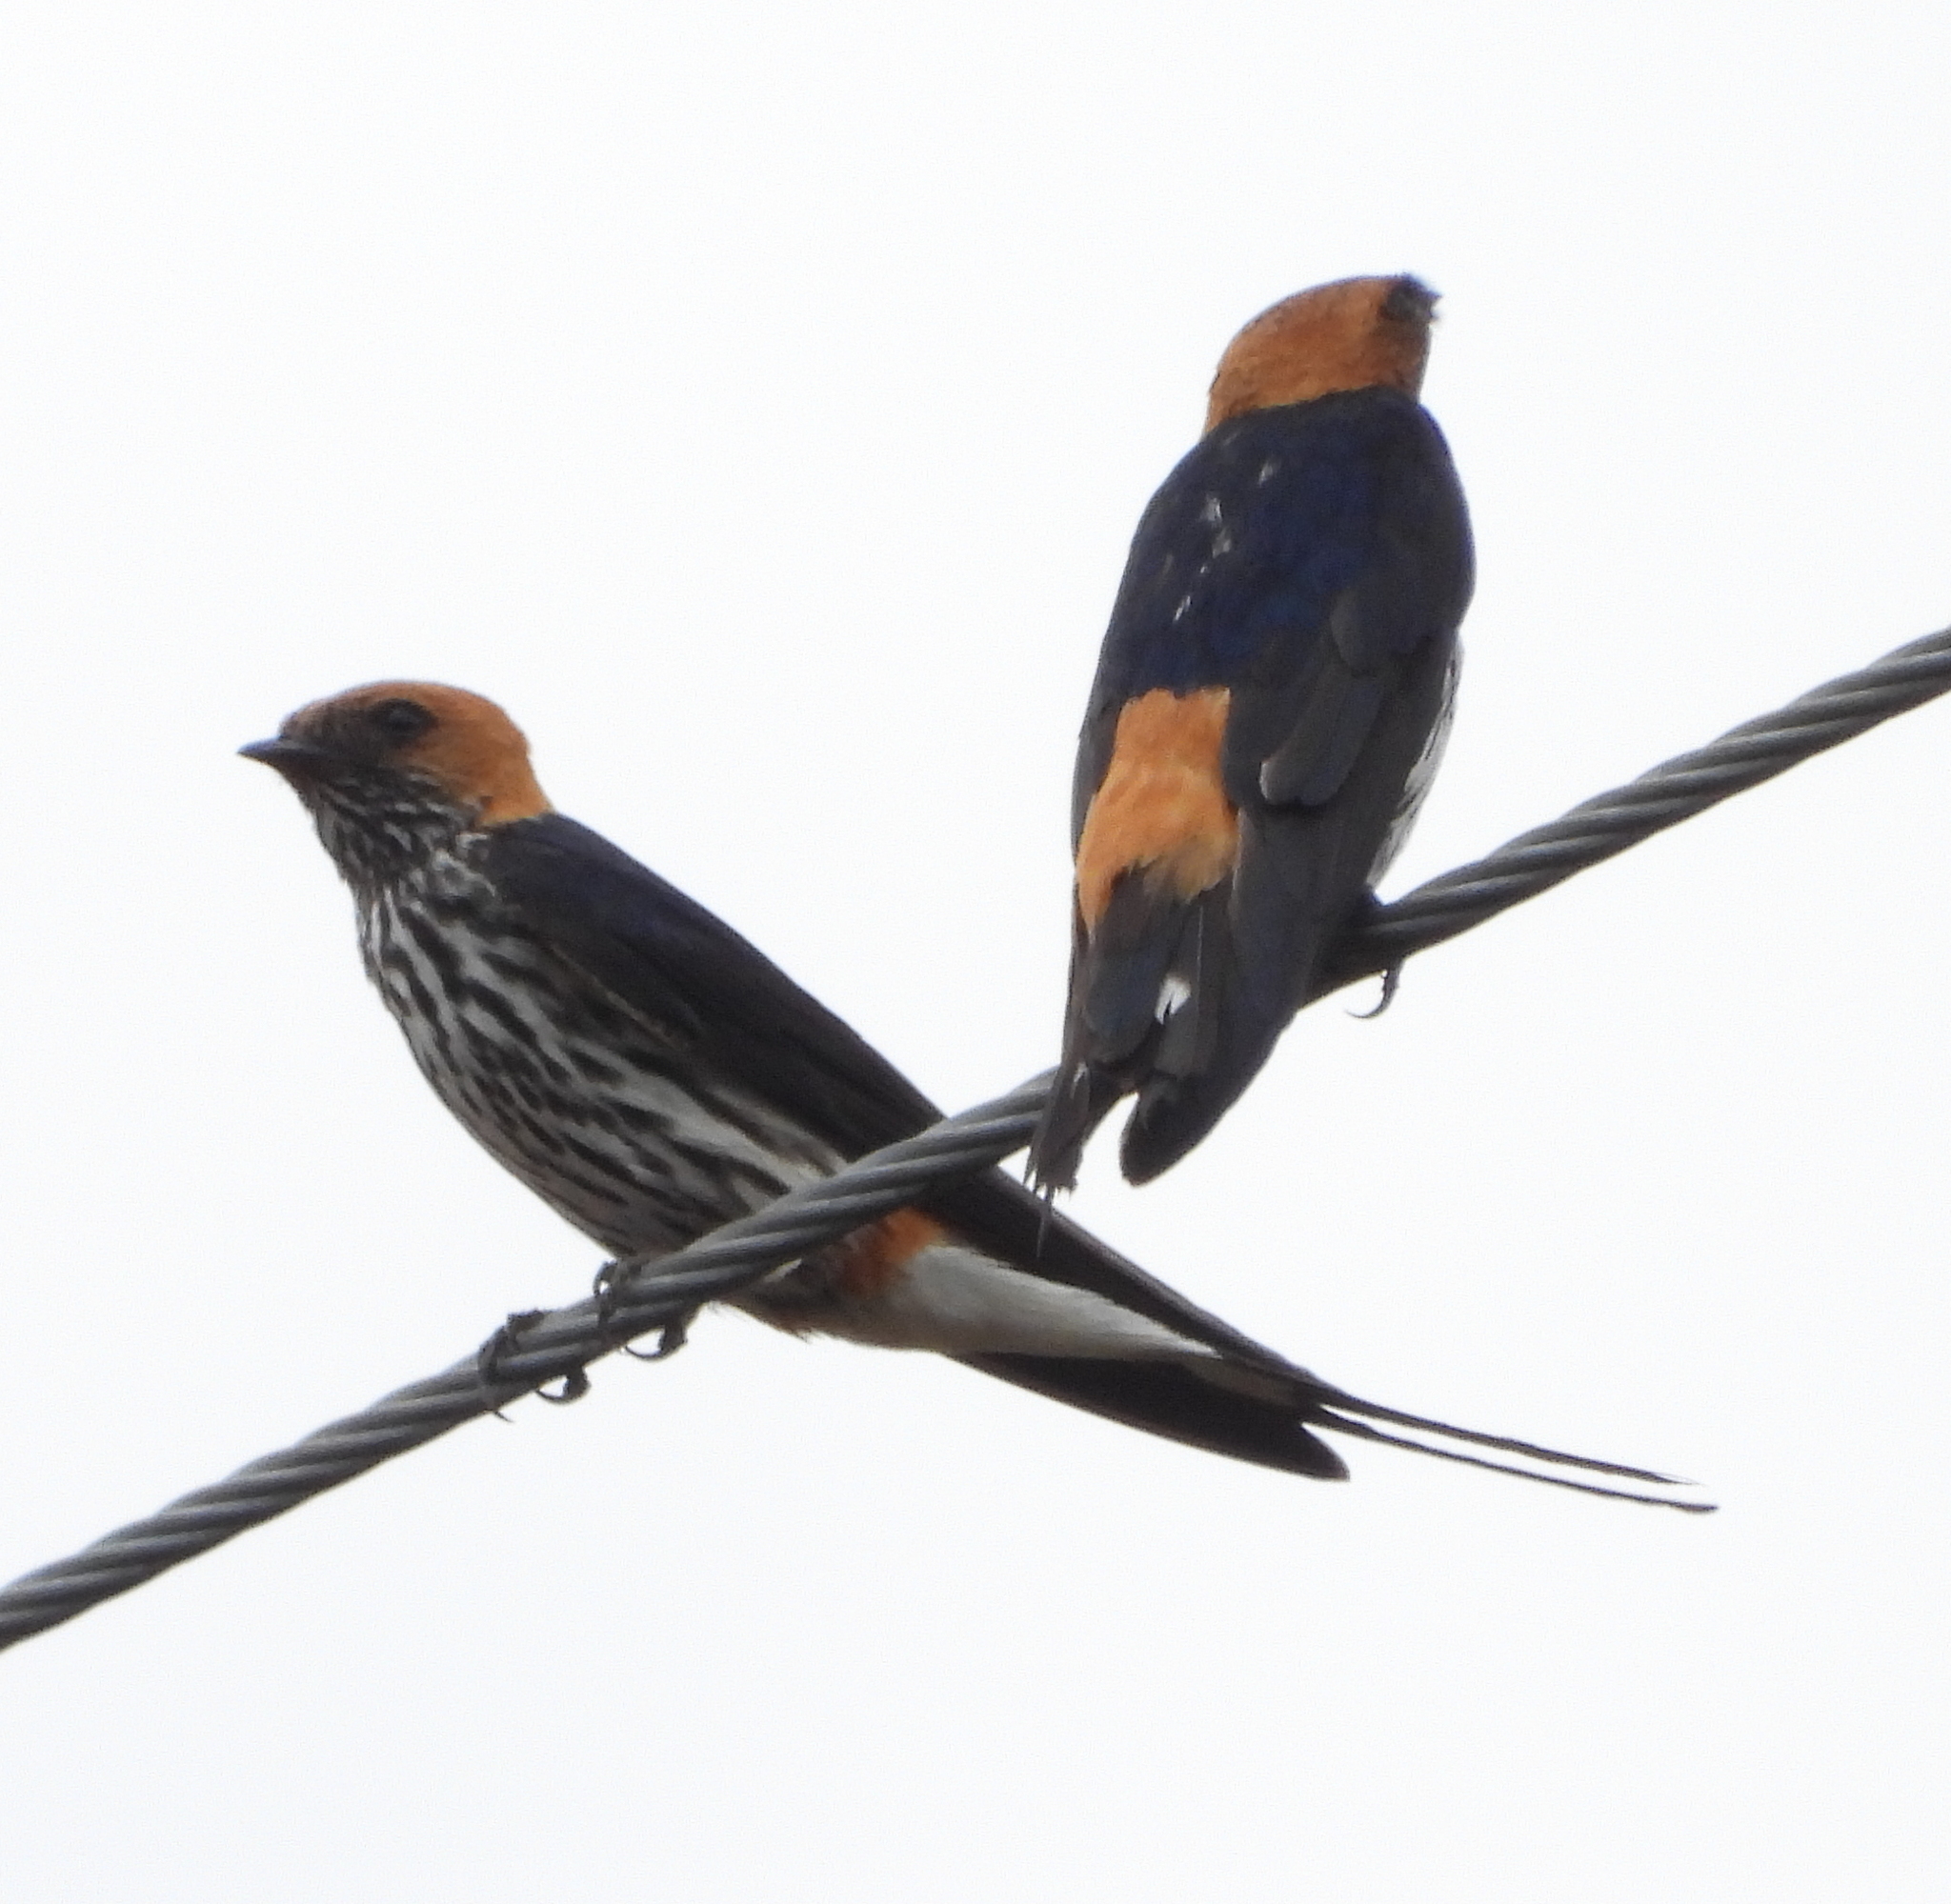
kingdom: Animalia
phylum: Chordata
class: Aves
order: Passeriformes
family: Hirundinidae
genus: Cecropis
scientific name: Cecropis abyssinica
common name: Lesser striped-swallow
